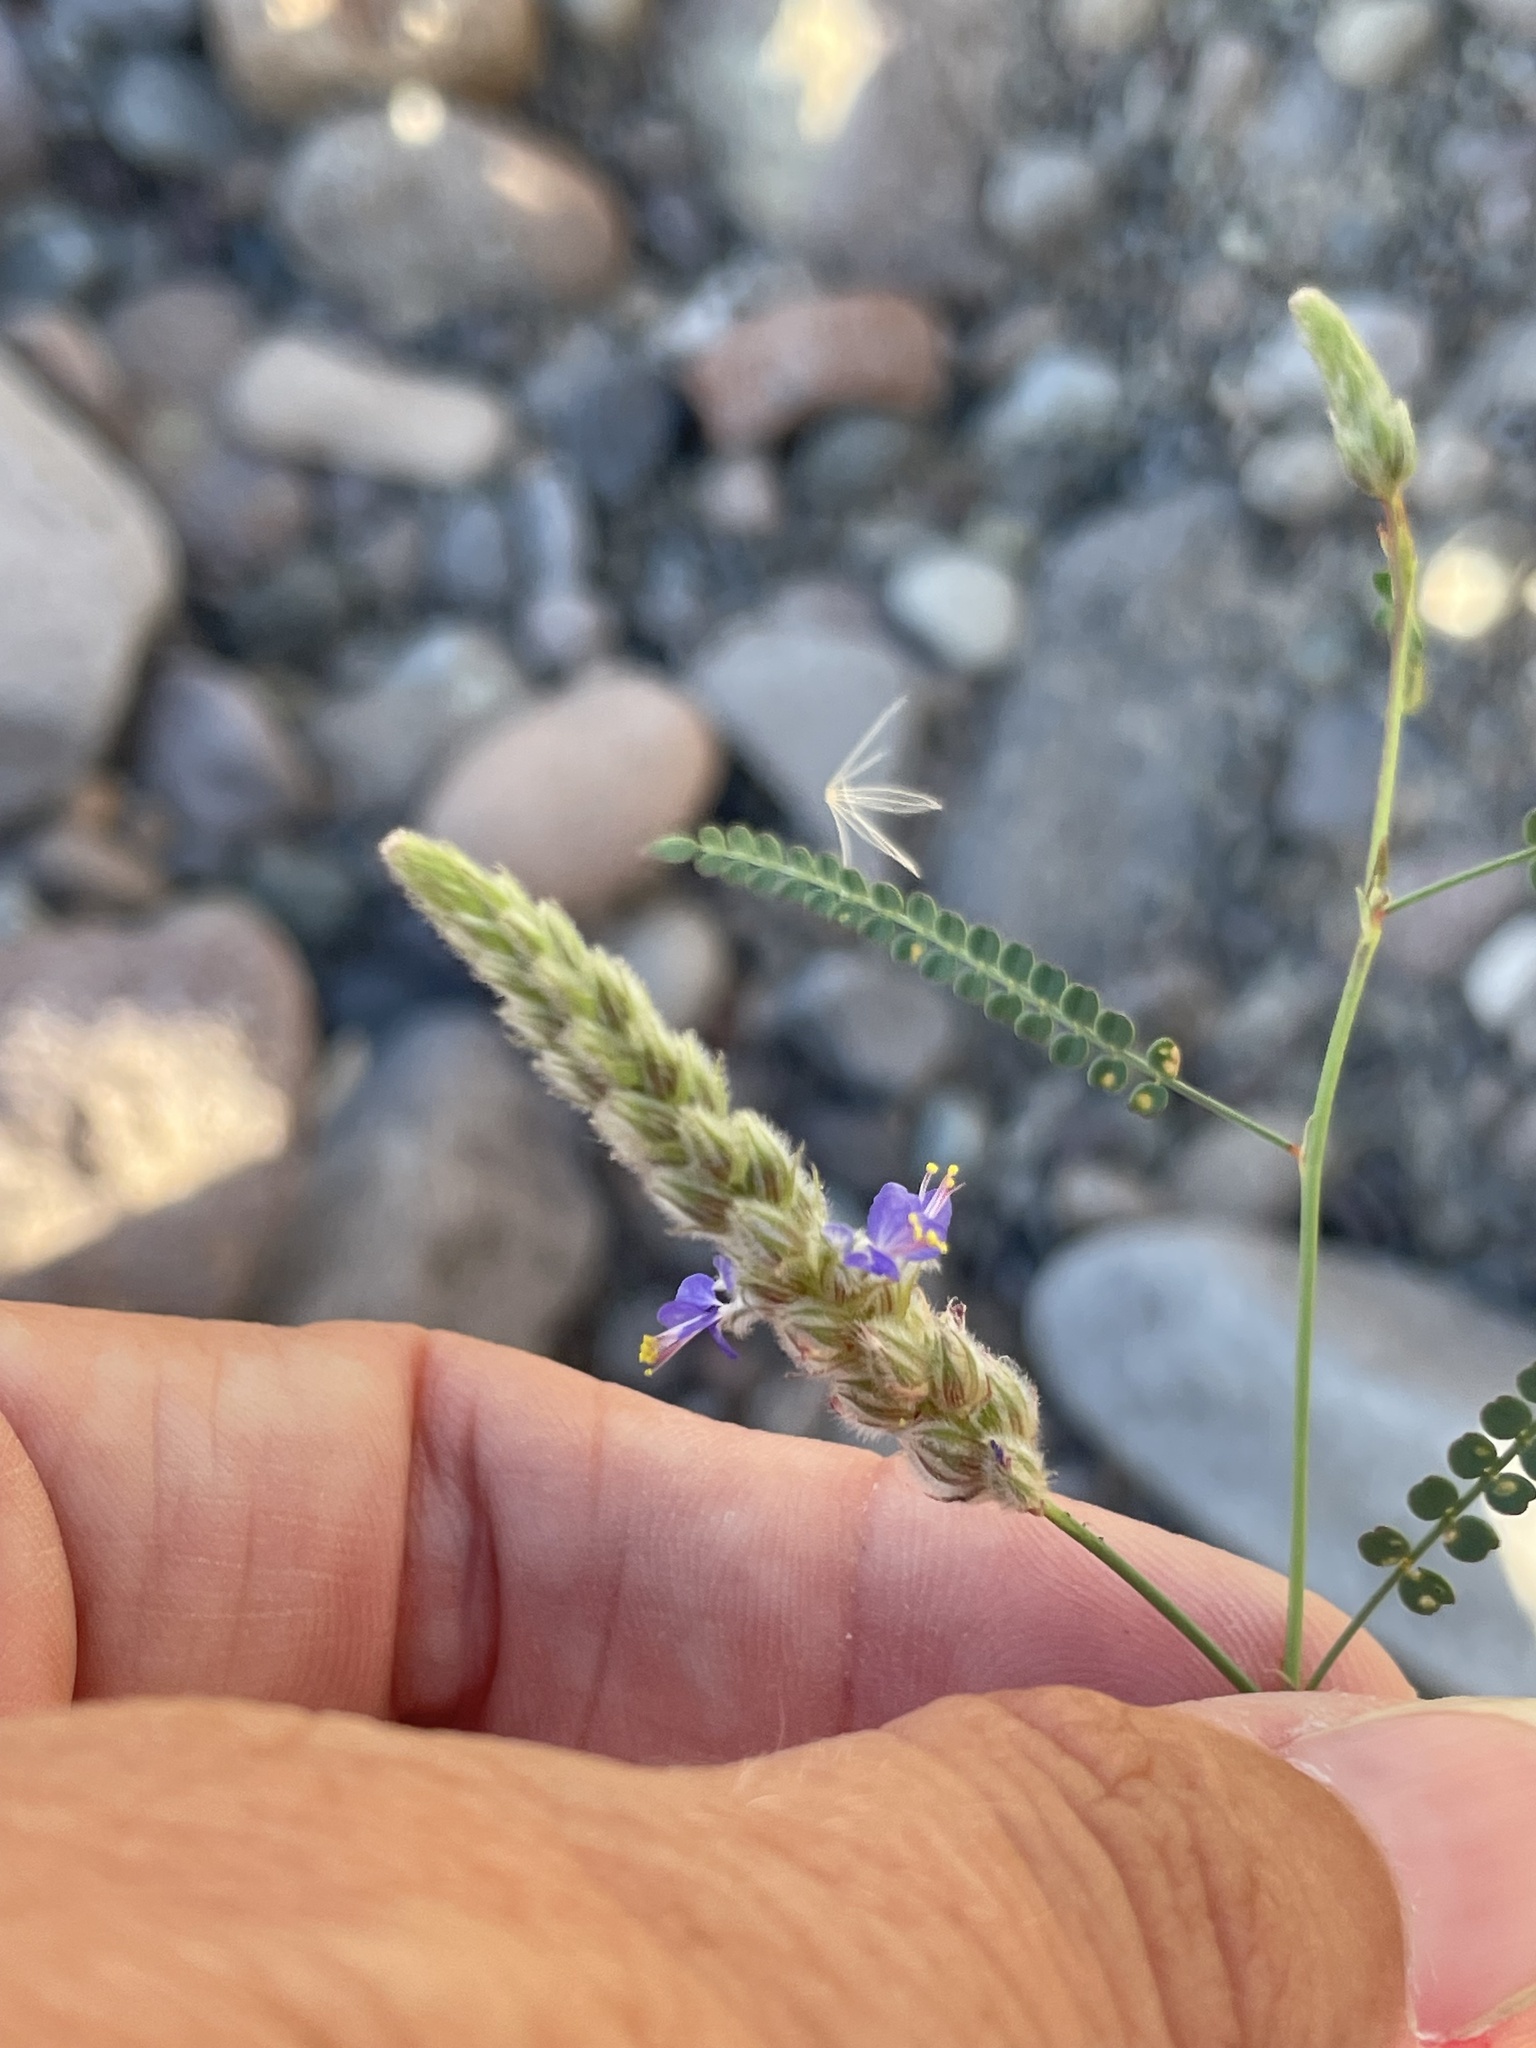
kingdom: Plantae
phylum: Tracheophyta
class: Magnoliopsida
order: Fabales
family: Fabaceae
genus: Marina
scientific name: Marina parryi
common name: Parry's marina
